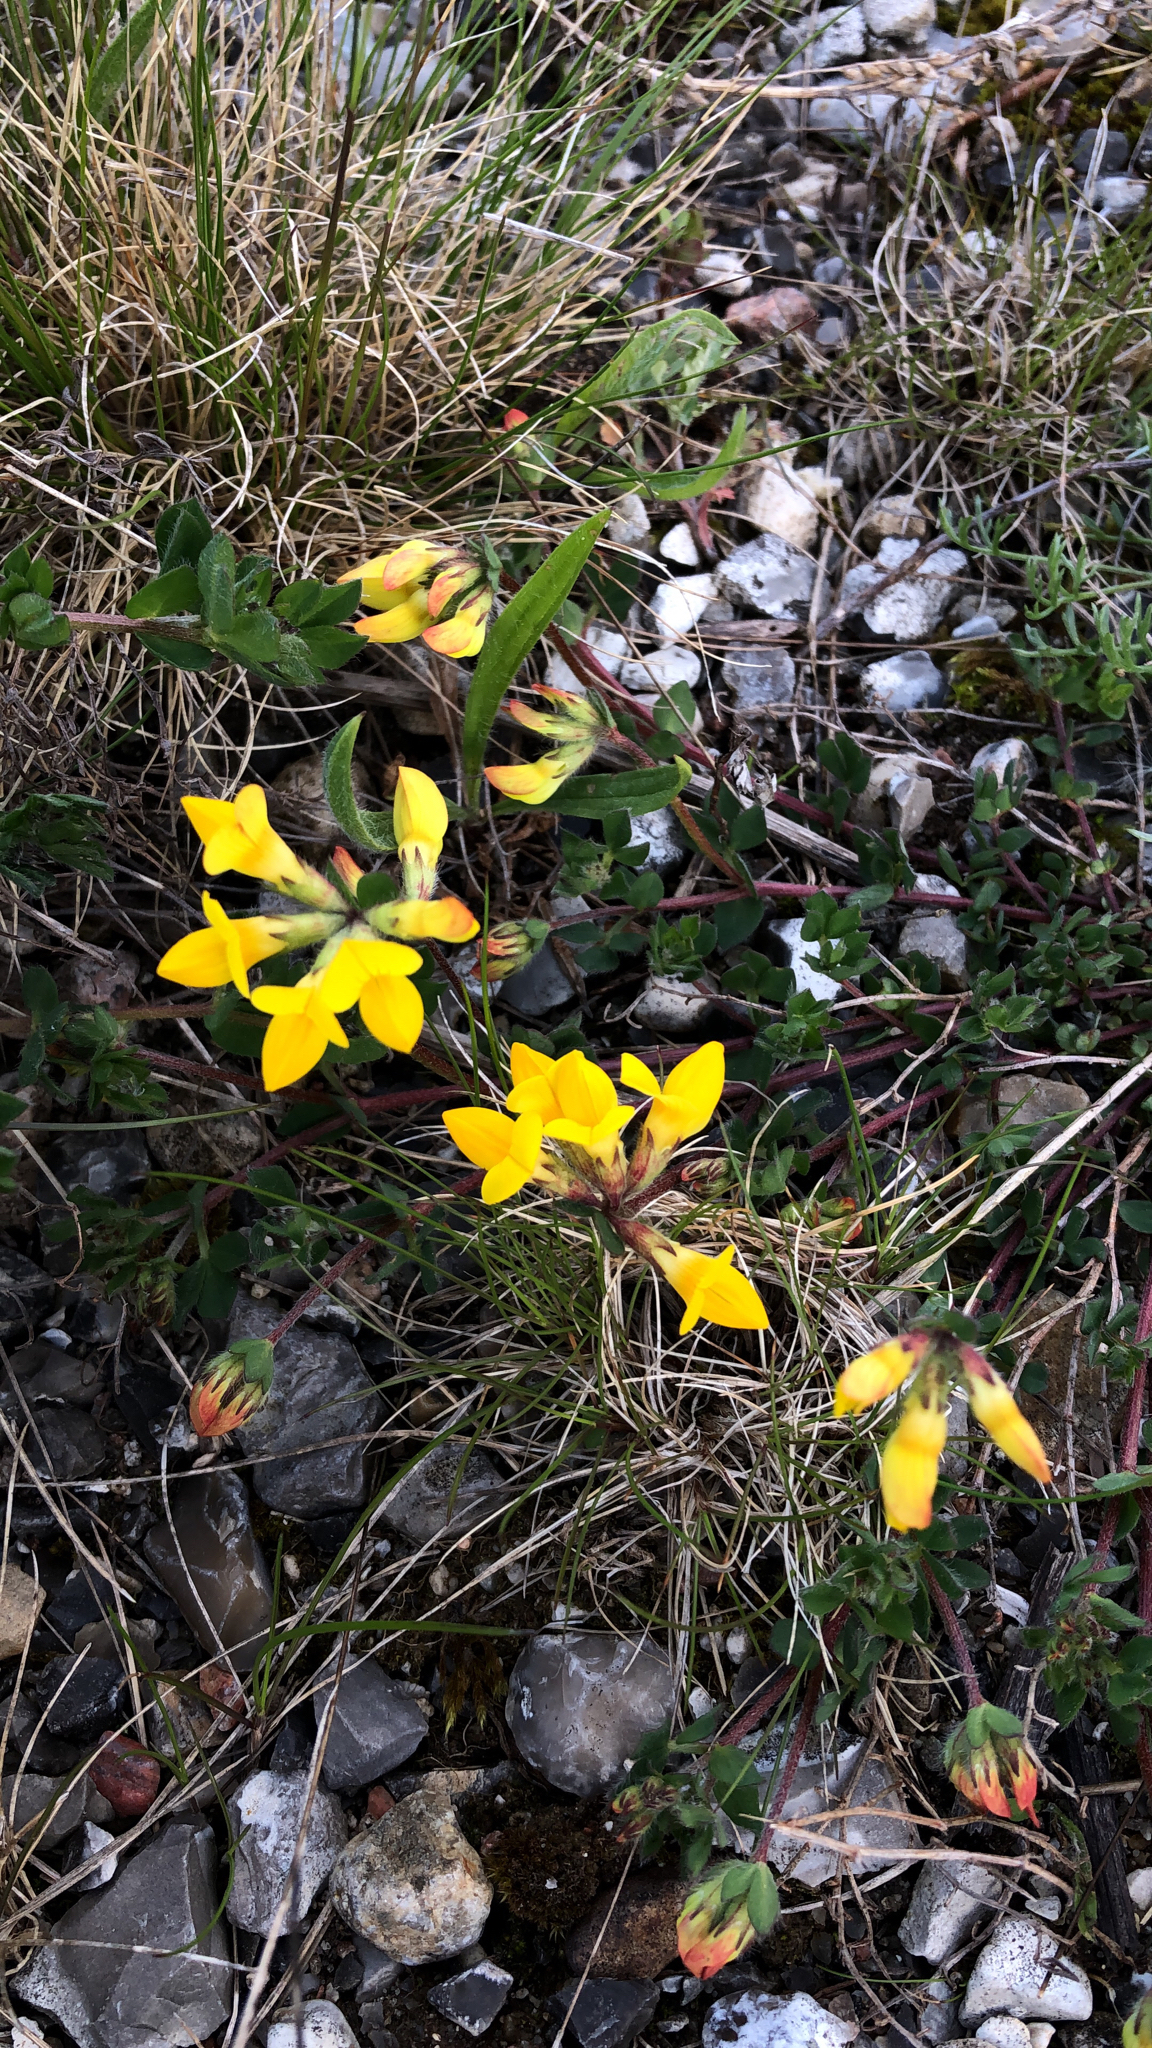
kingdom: Plantae
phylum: Tracheophyta
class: Magnoliopsida
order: Fabales
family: Fabaceae
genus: Lotus
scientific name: Lotus corniculatus
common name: Common bird's-foot-trefoil
